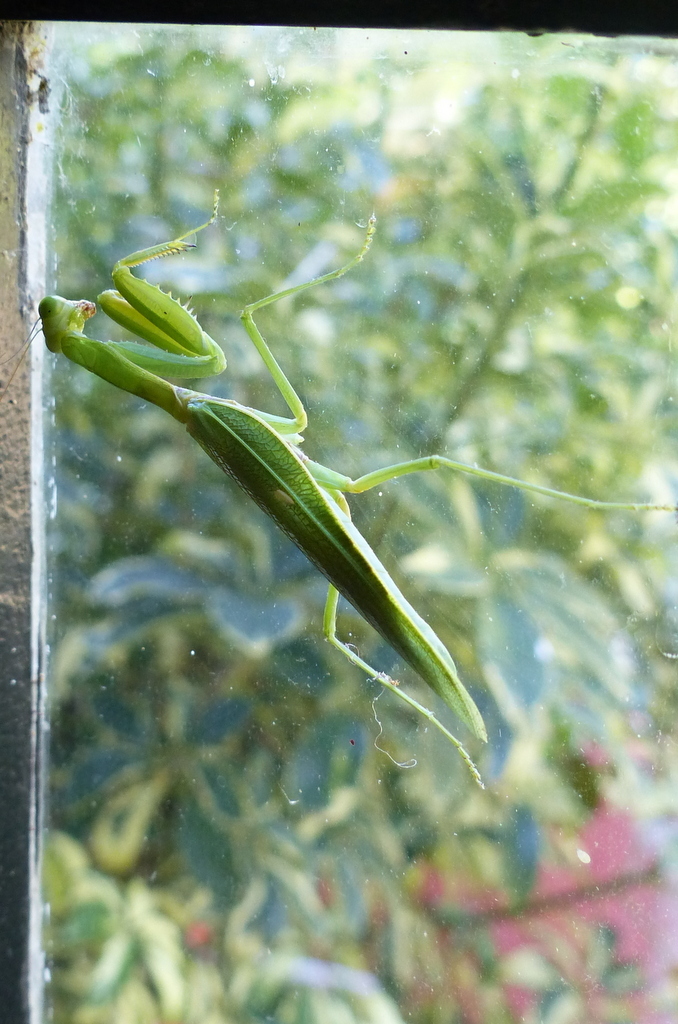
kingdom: Animalia
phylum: Arthropoda
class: Insecta
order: Mantodea
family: Mantidae
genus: Hierodula
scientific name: Hierodula tenuidentata
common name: Giant asian mantis
